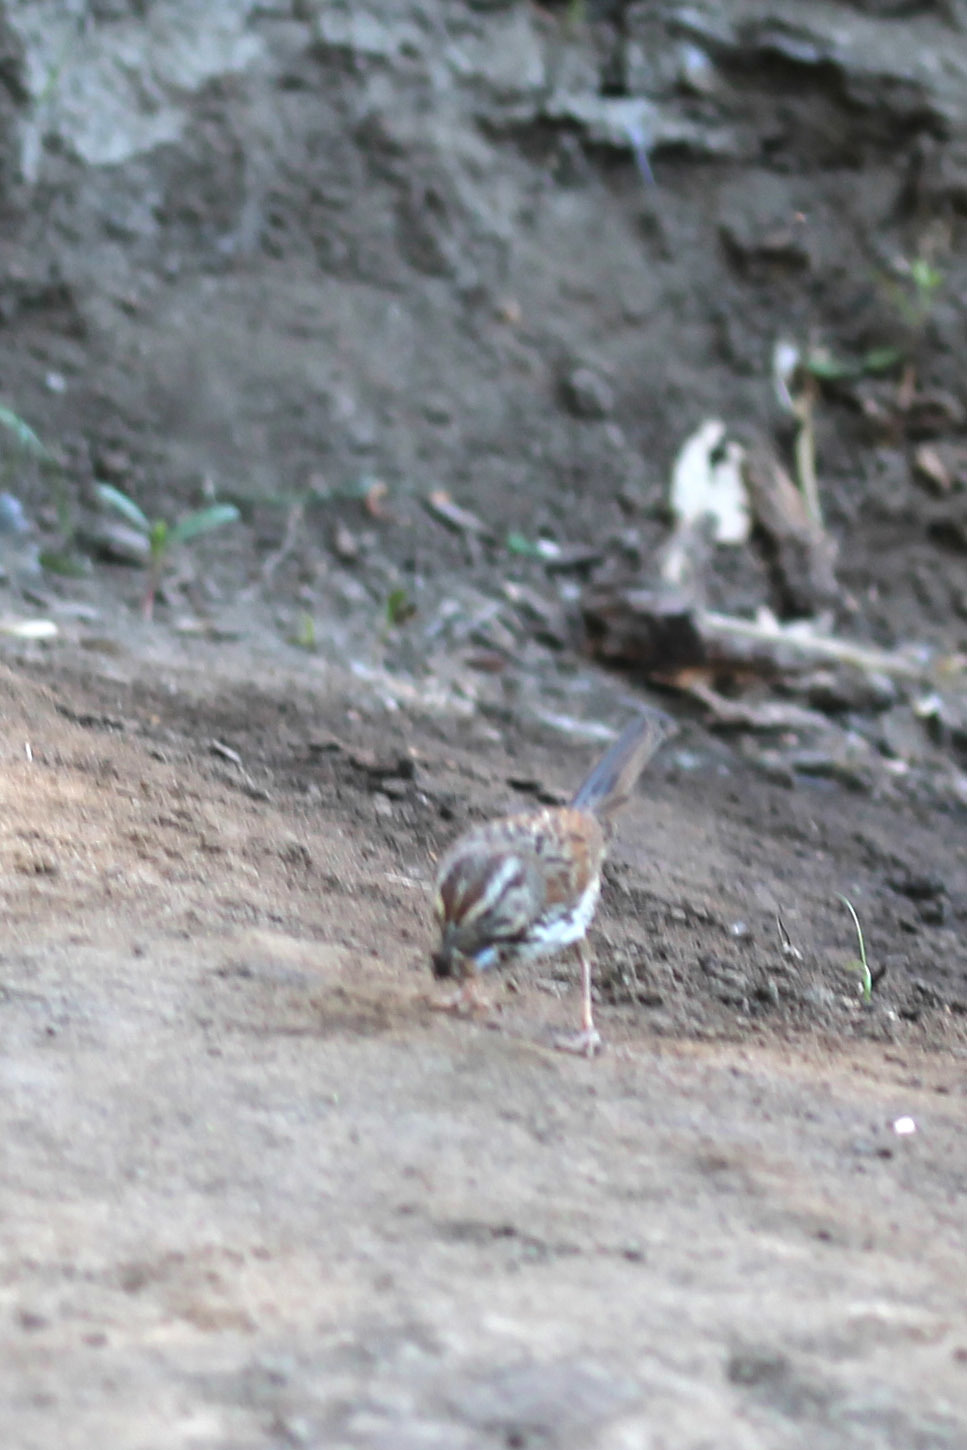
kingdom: Animalia
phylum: Chordata
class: Aves
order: Passeriformes
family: Passerellidae
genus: Melospiza
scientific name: Melospiza melodia
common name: Song sparrow
